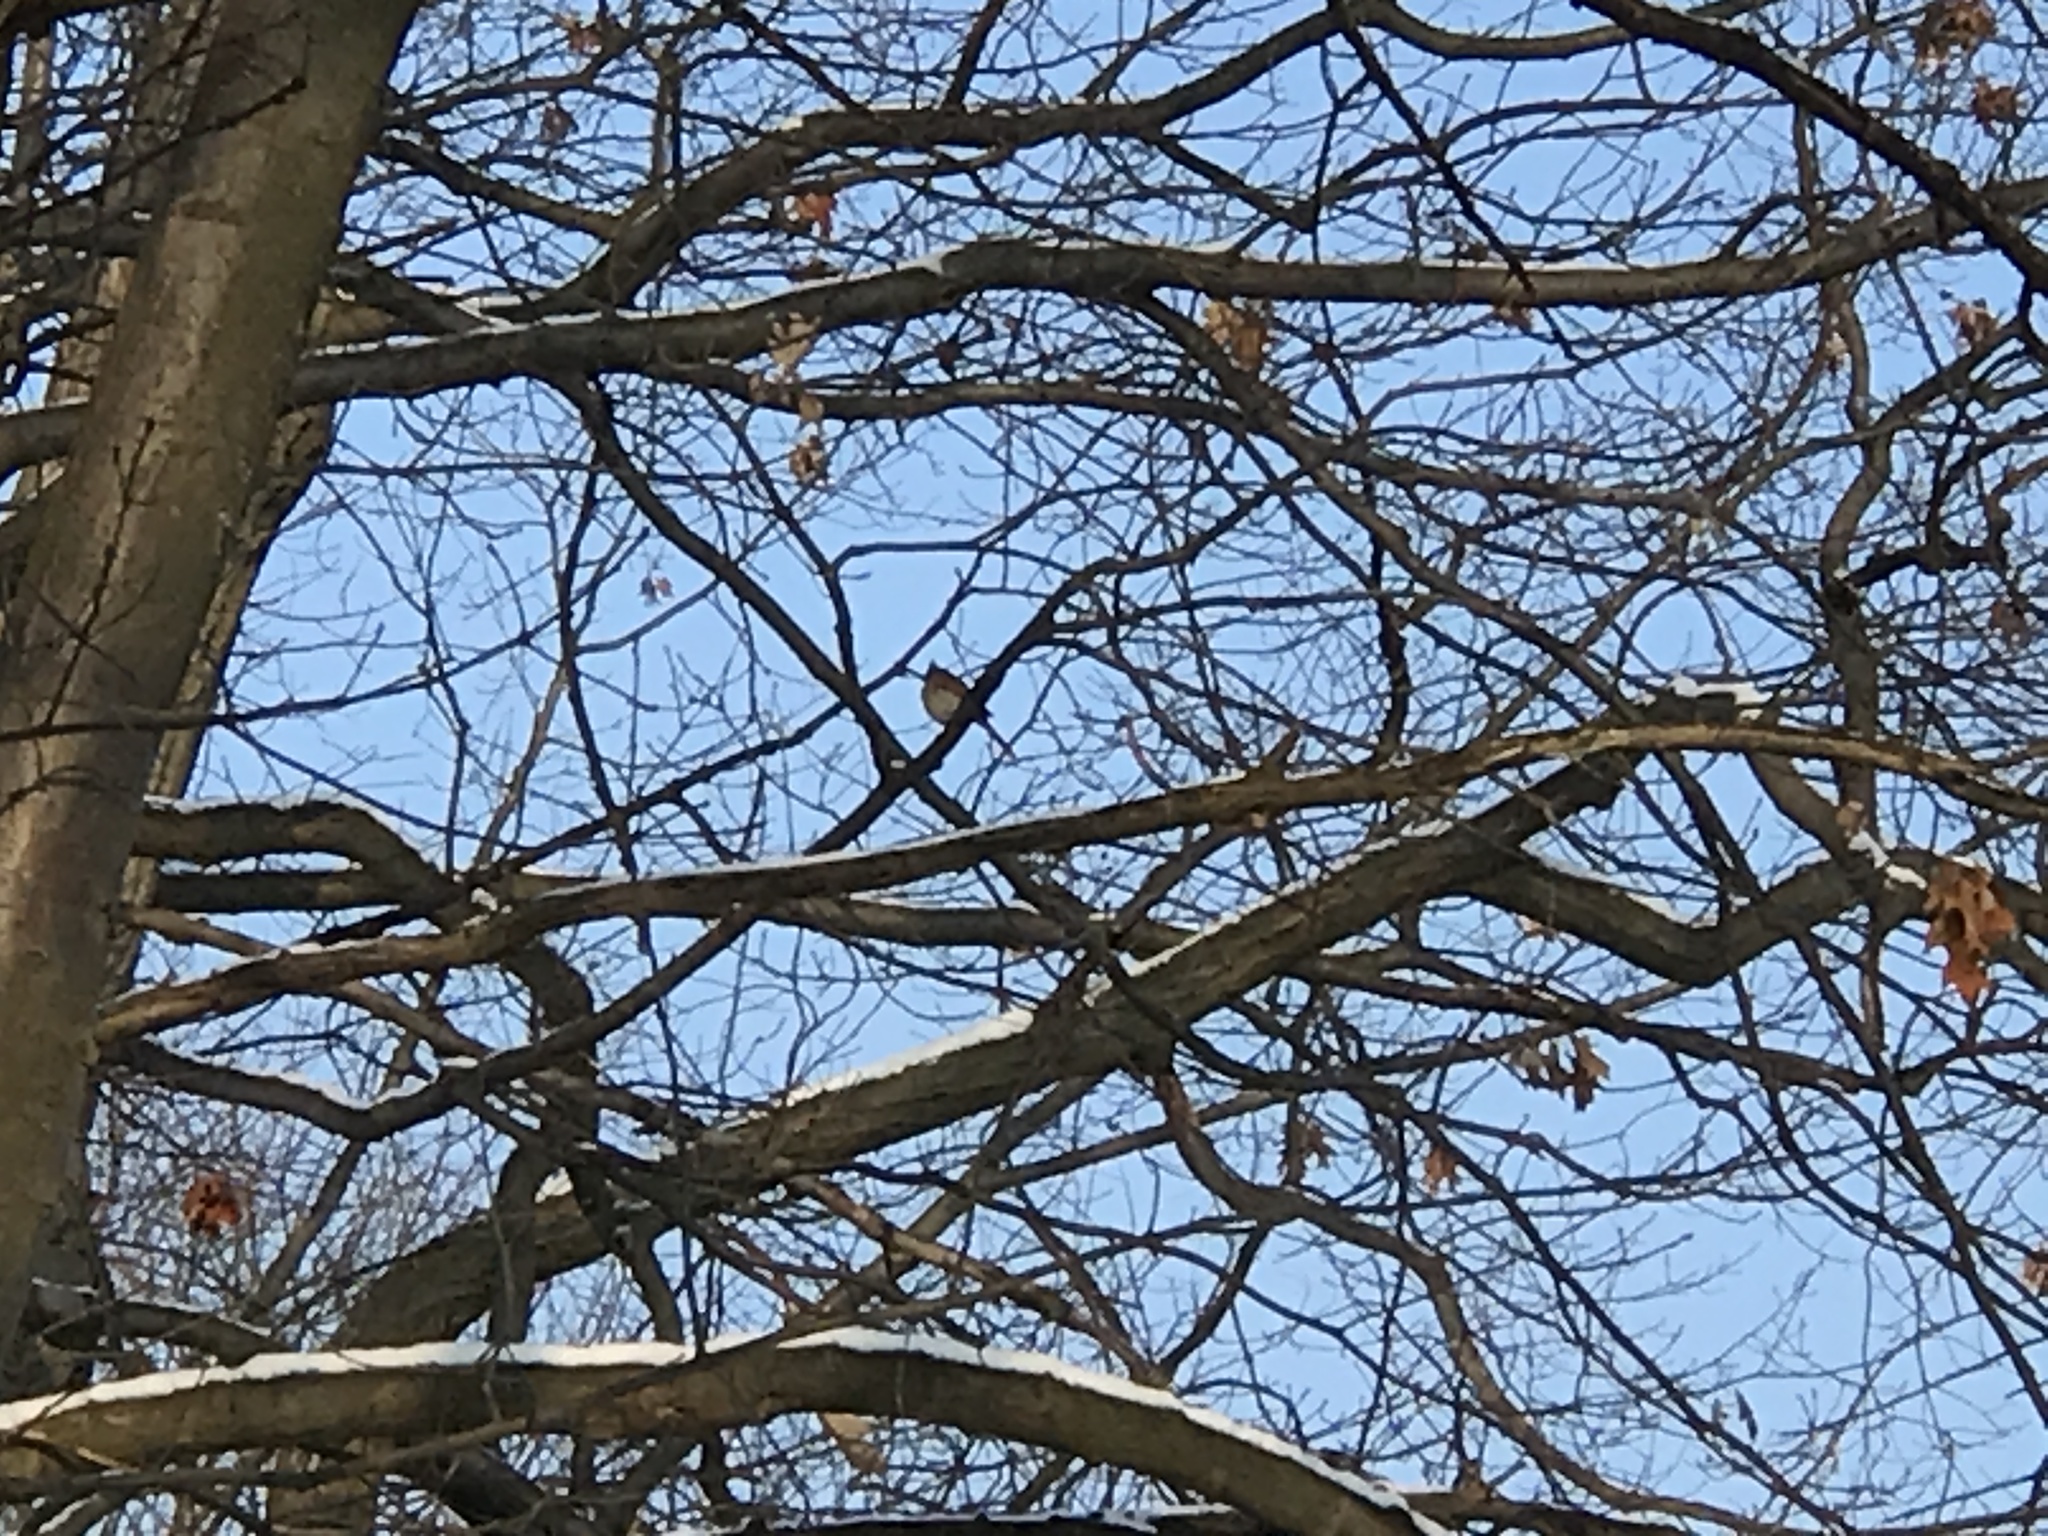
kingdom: Animalia
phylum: Chordata
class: Aves
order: Passeriformes
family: Cardinalidae
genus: Cardinalis
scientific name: Cardinalis cardinalis
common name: Northern cardinal
